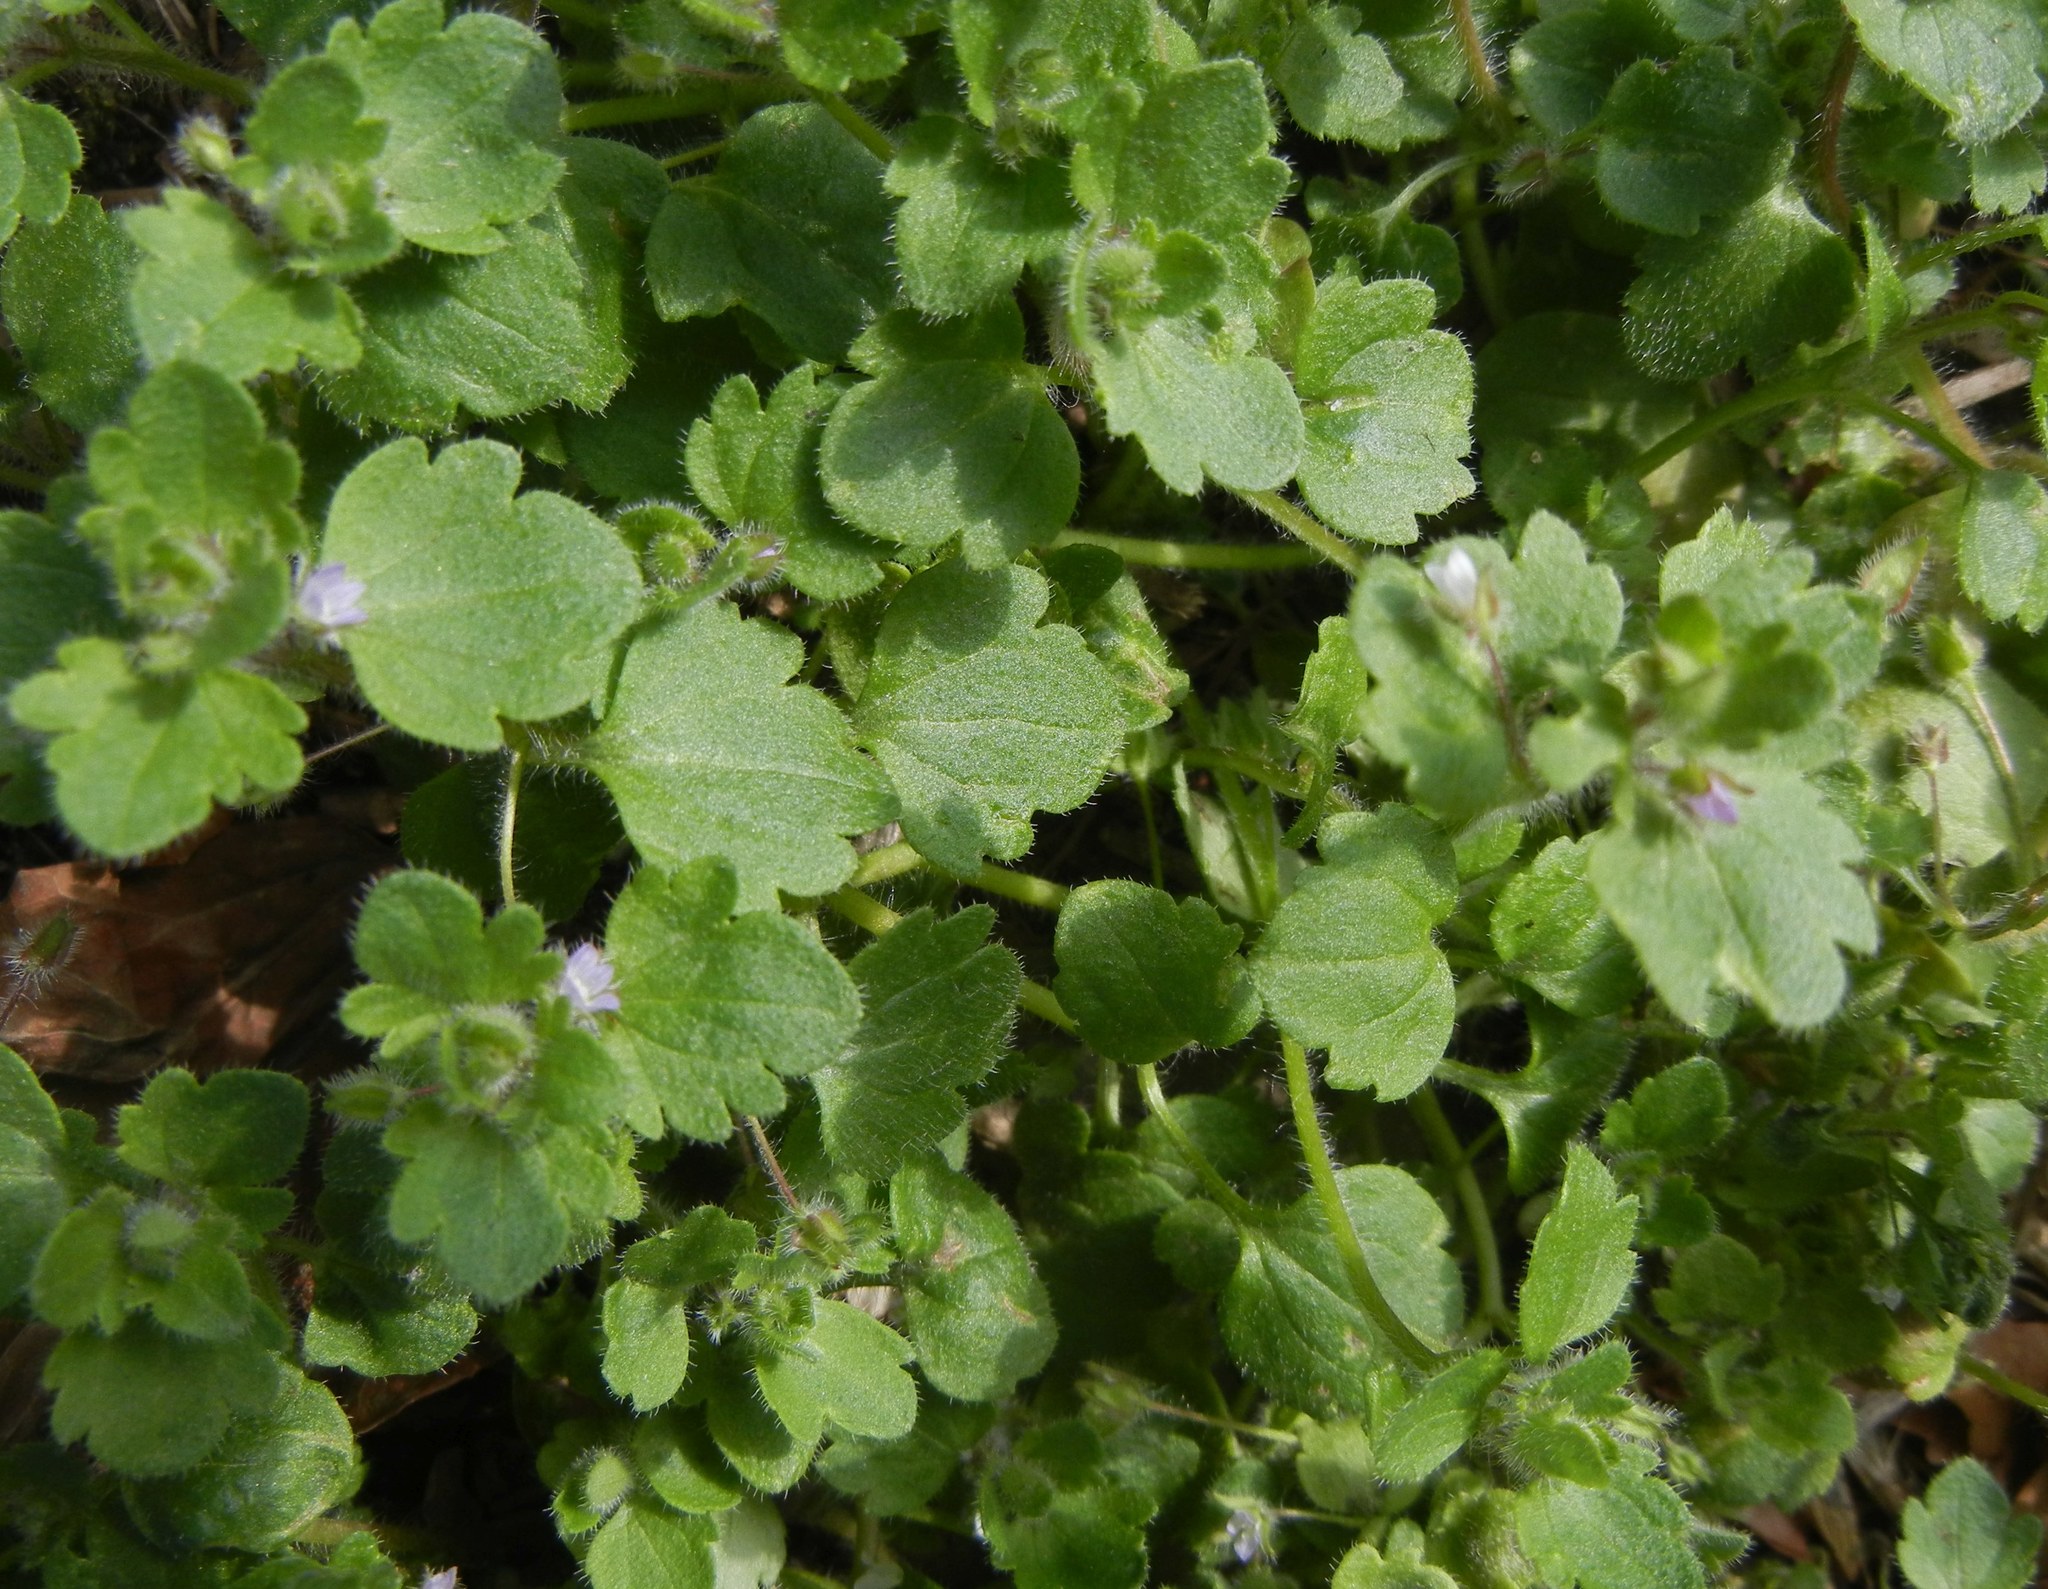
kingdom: Plantae
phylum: Tracheophyta
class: Magnoliopsida
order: Lamiales
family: Plantaginaceae
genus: Veronica
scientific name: Veronica sublobata
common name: False ivy-leaved speedwell
